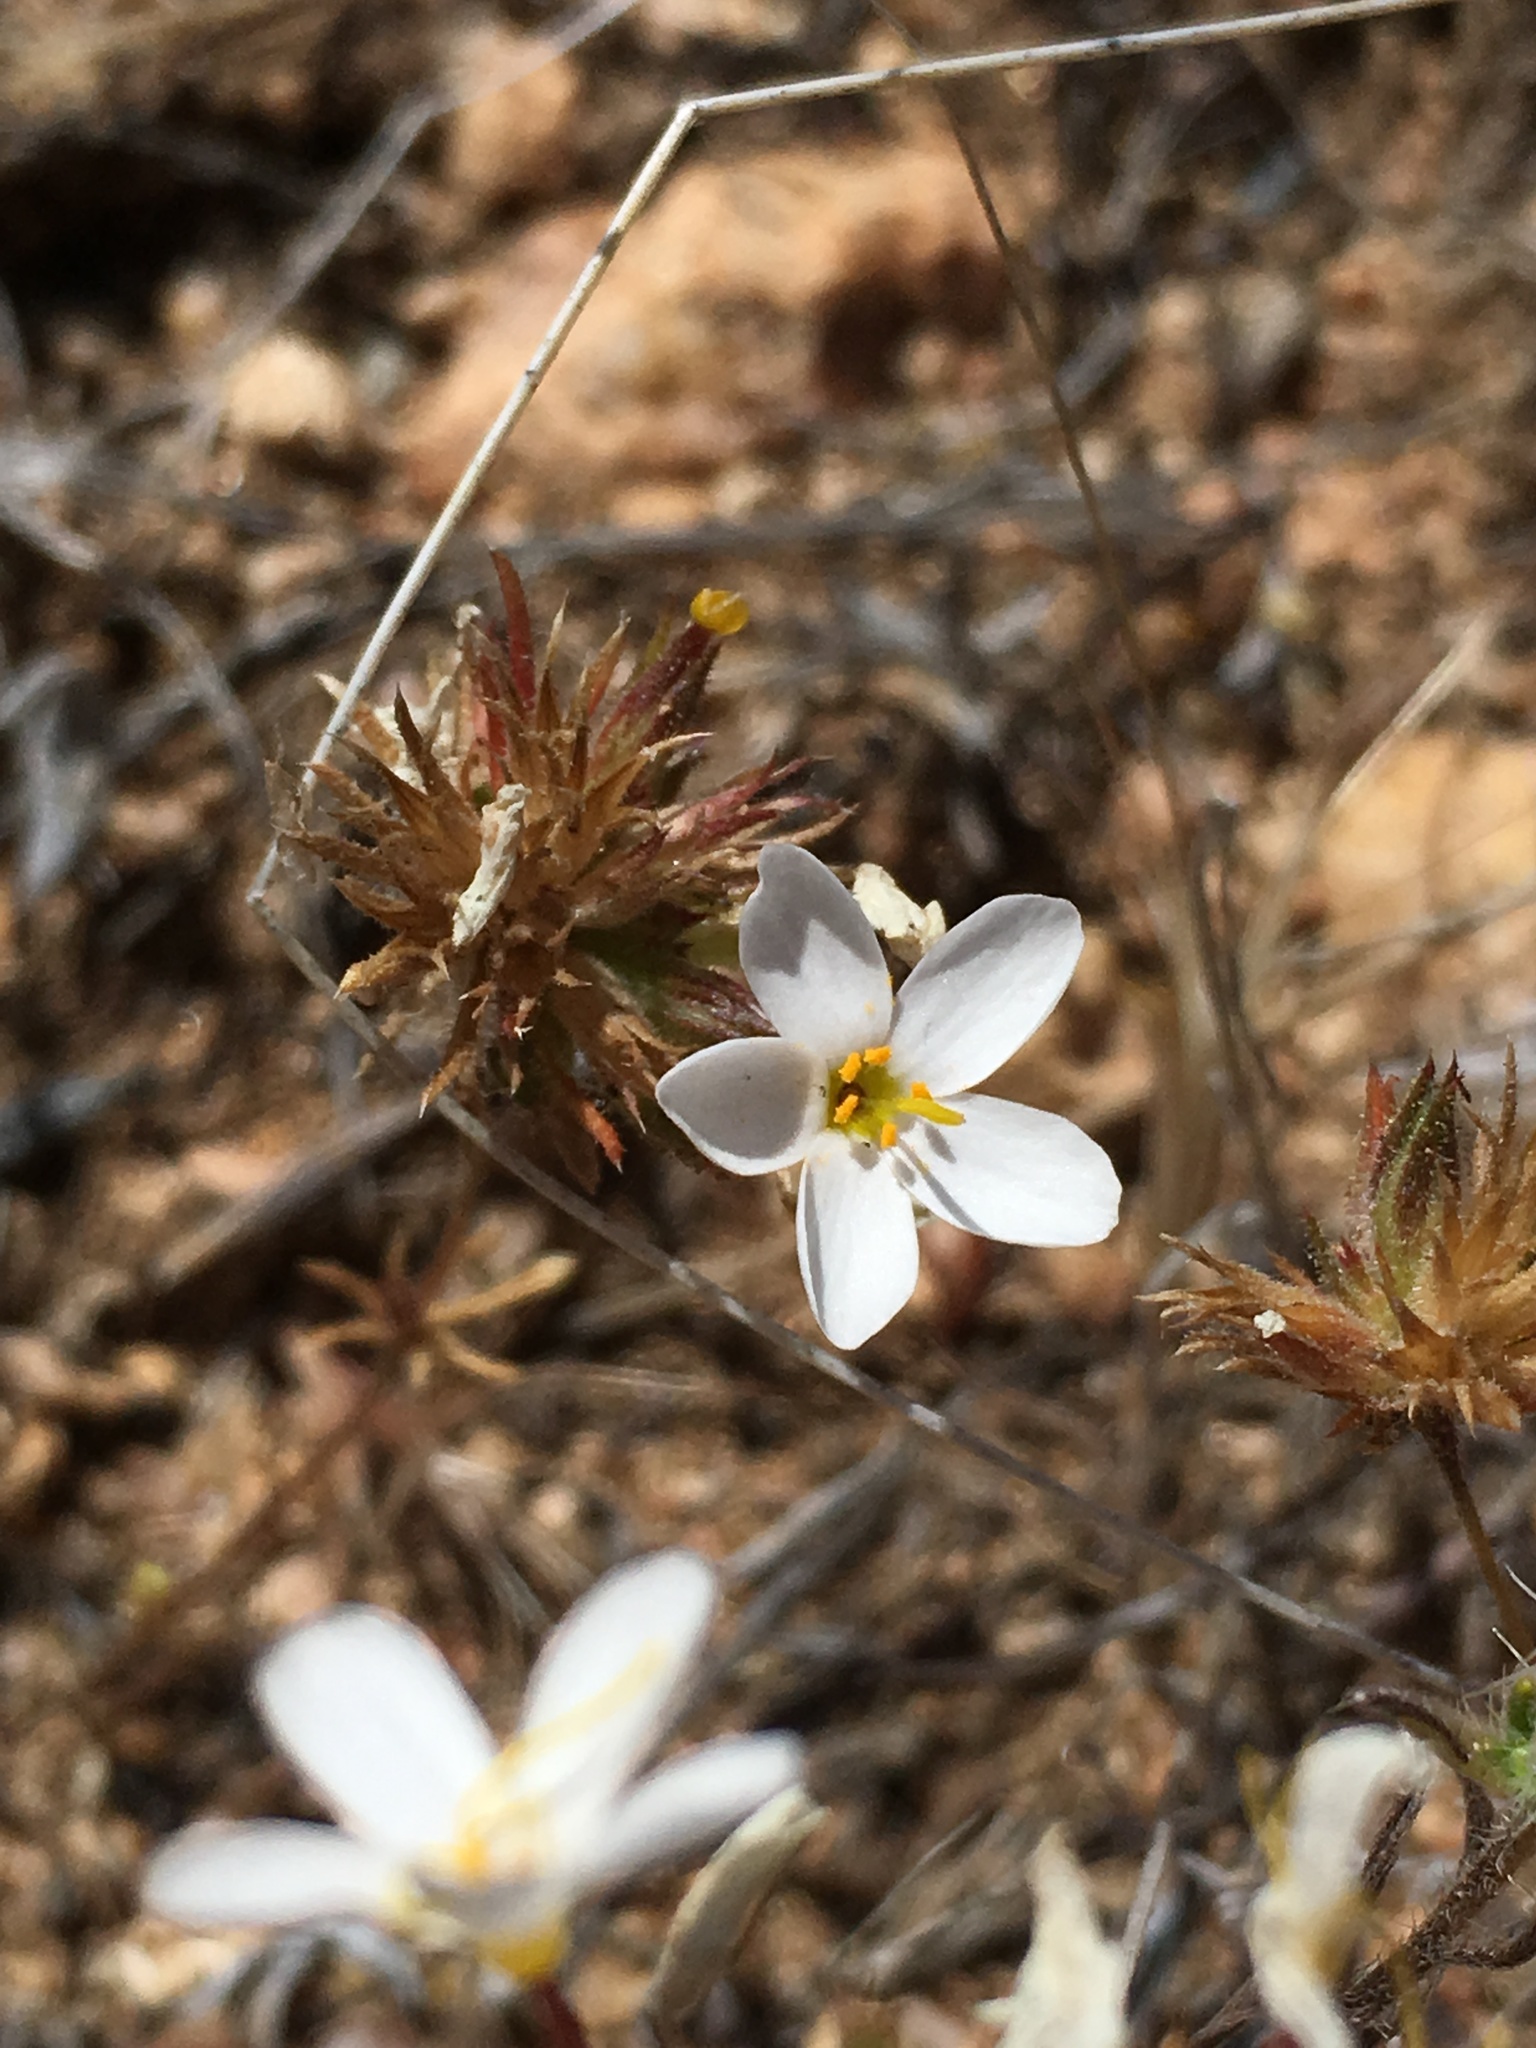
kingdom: Plantae
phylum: Tracheophyta
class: Magnoliopsida
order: Ericales
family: Polemoniaceae
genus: Leptosiphon
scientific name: Leptosiphon parviflorus
